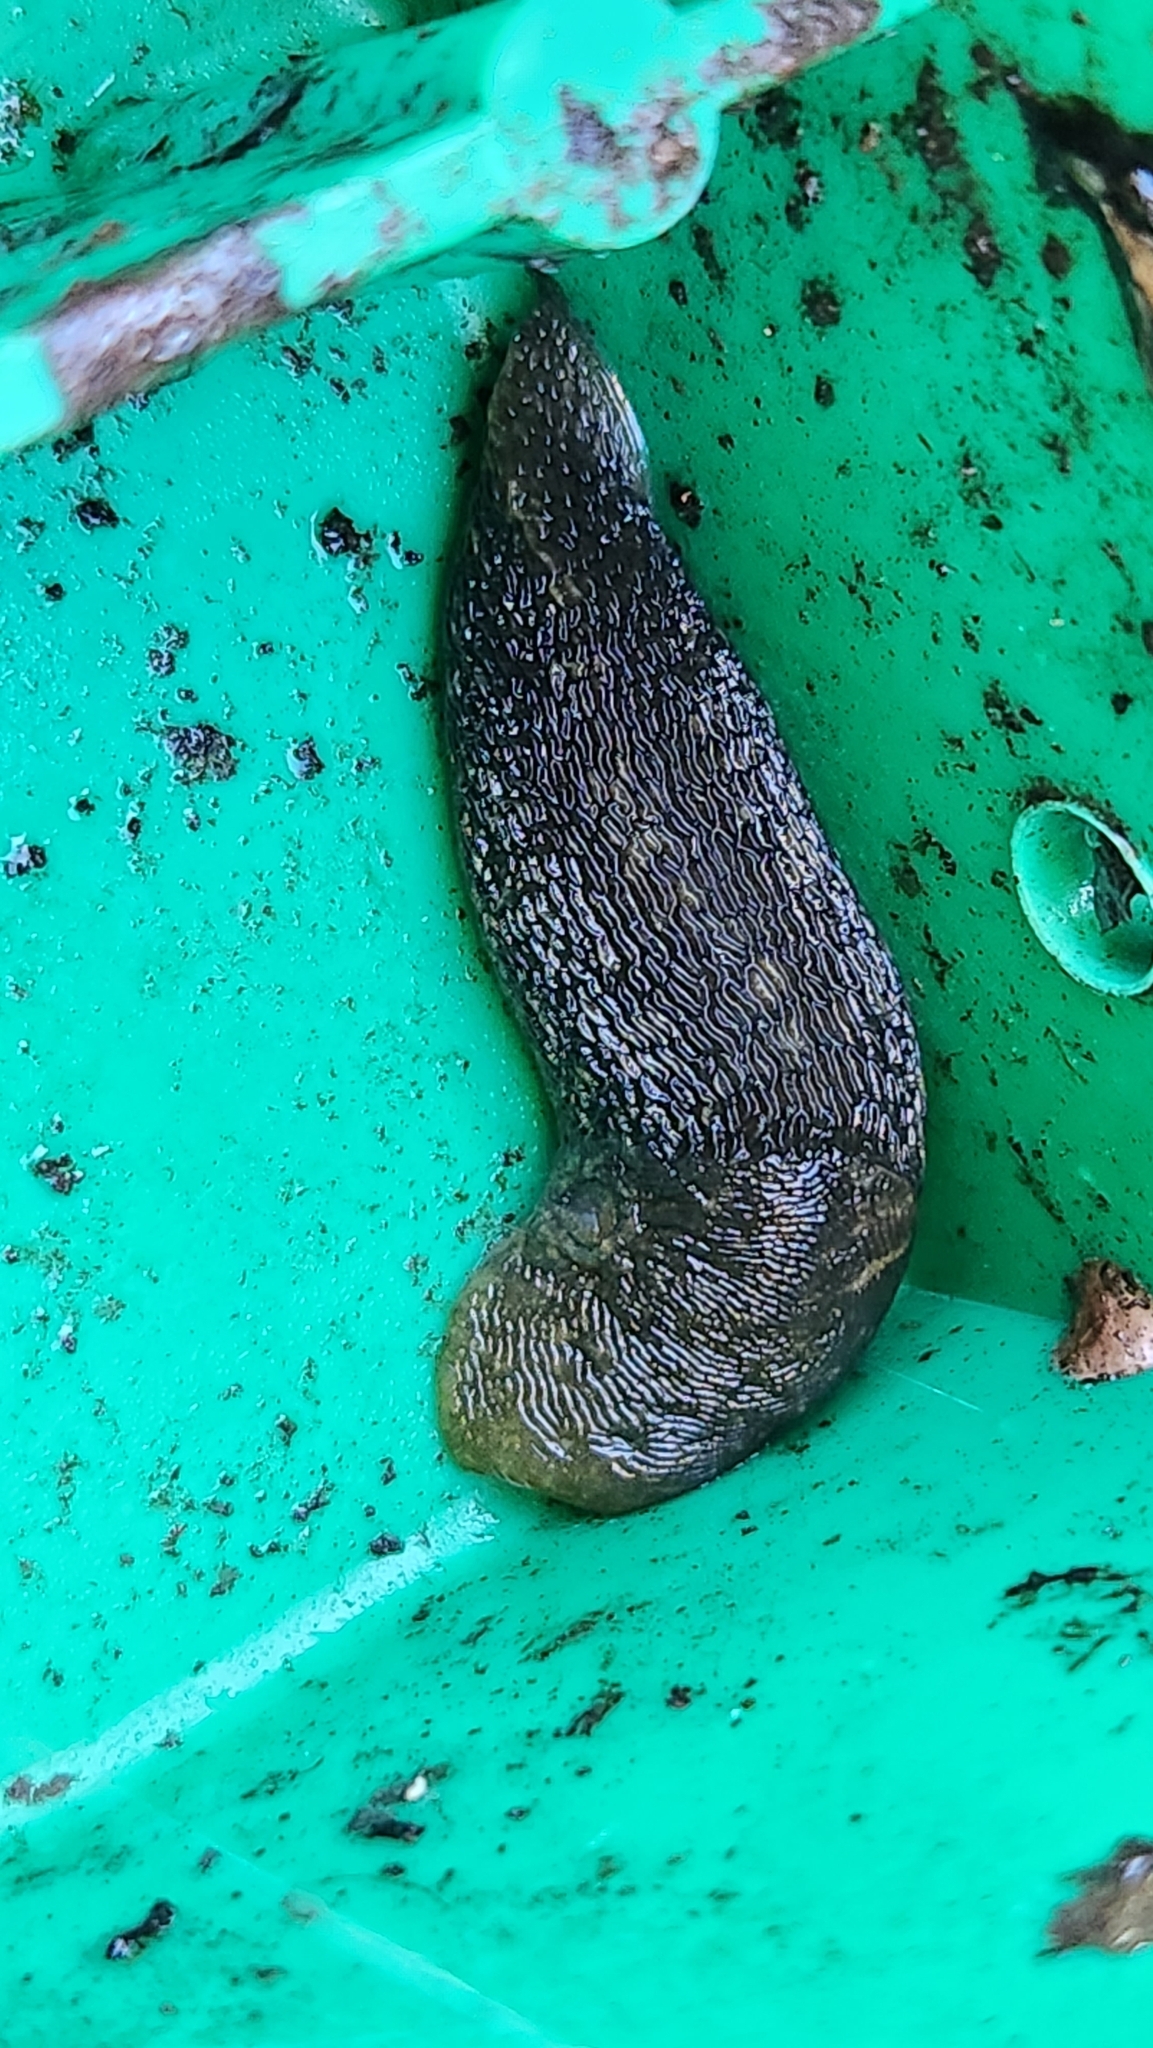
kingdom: Animalia
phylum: Mollusca
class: Gastropoda
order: Stylommatophora
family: Limacidae
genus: Limacus
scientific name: Limacus flavus
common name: Yellow gardenslug
